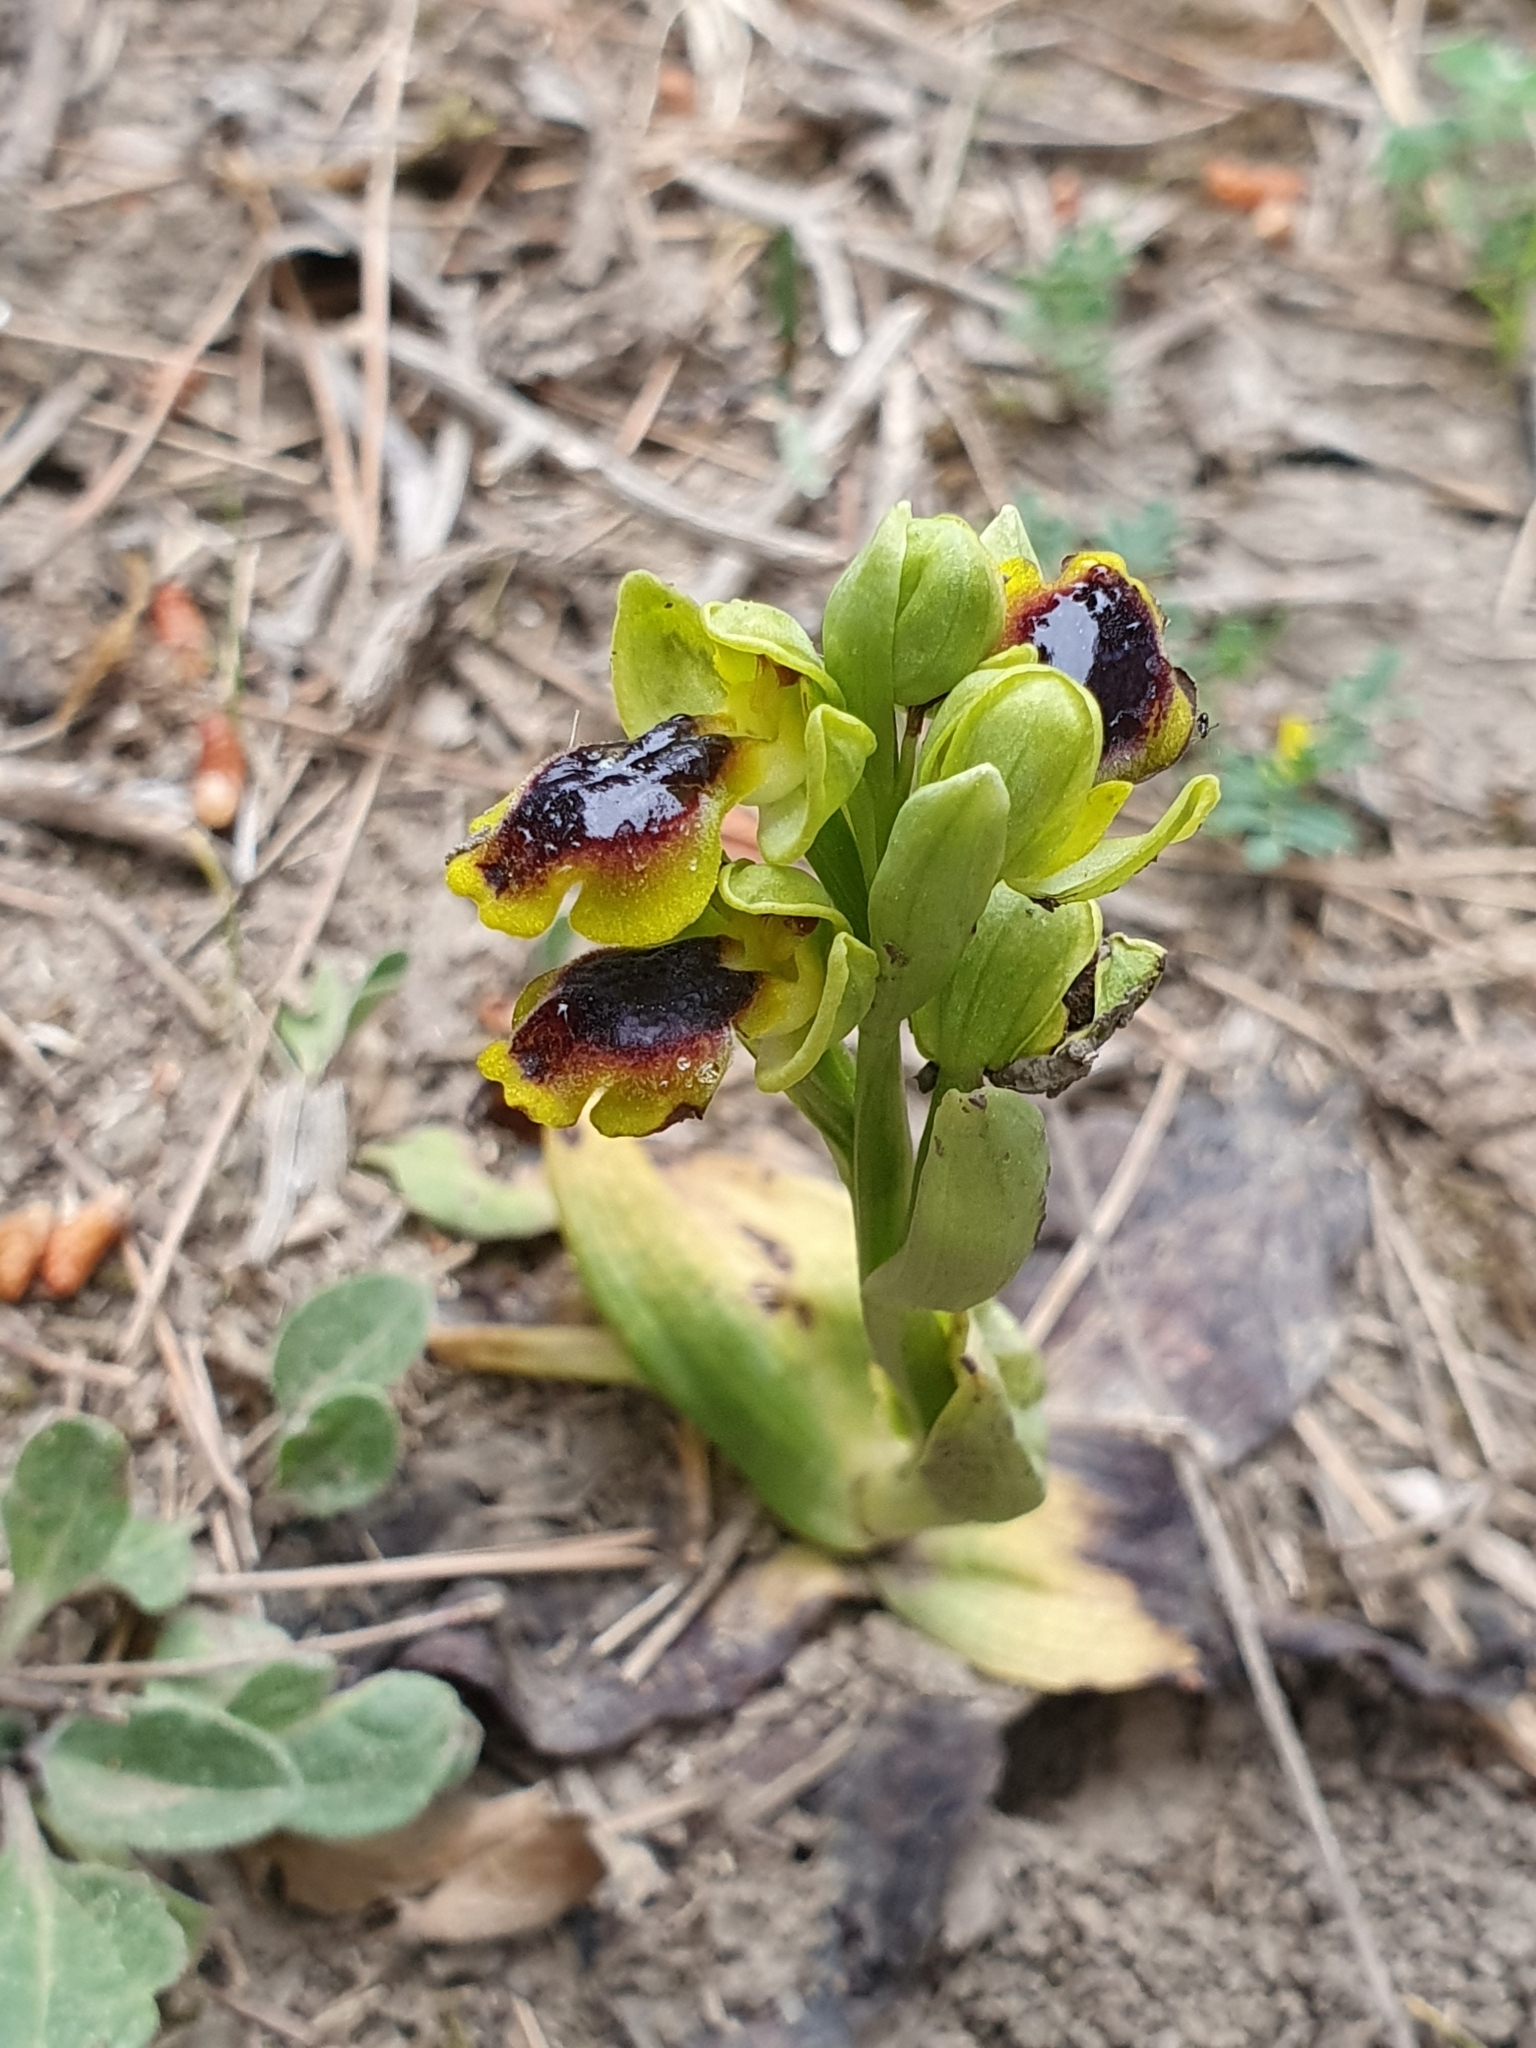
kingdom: Plantae
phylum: Tracheophyta
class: Liliopsida
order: Asparagales
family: Orchidaceae
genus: Ophrys
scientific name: Ophrys battandieri
